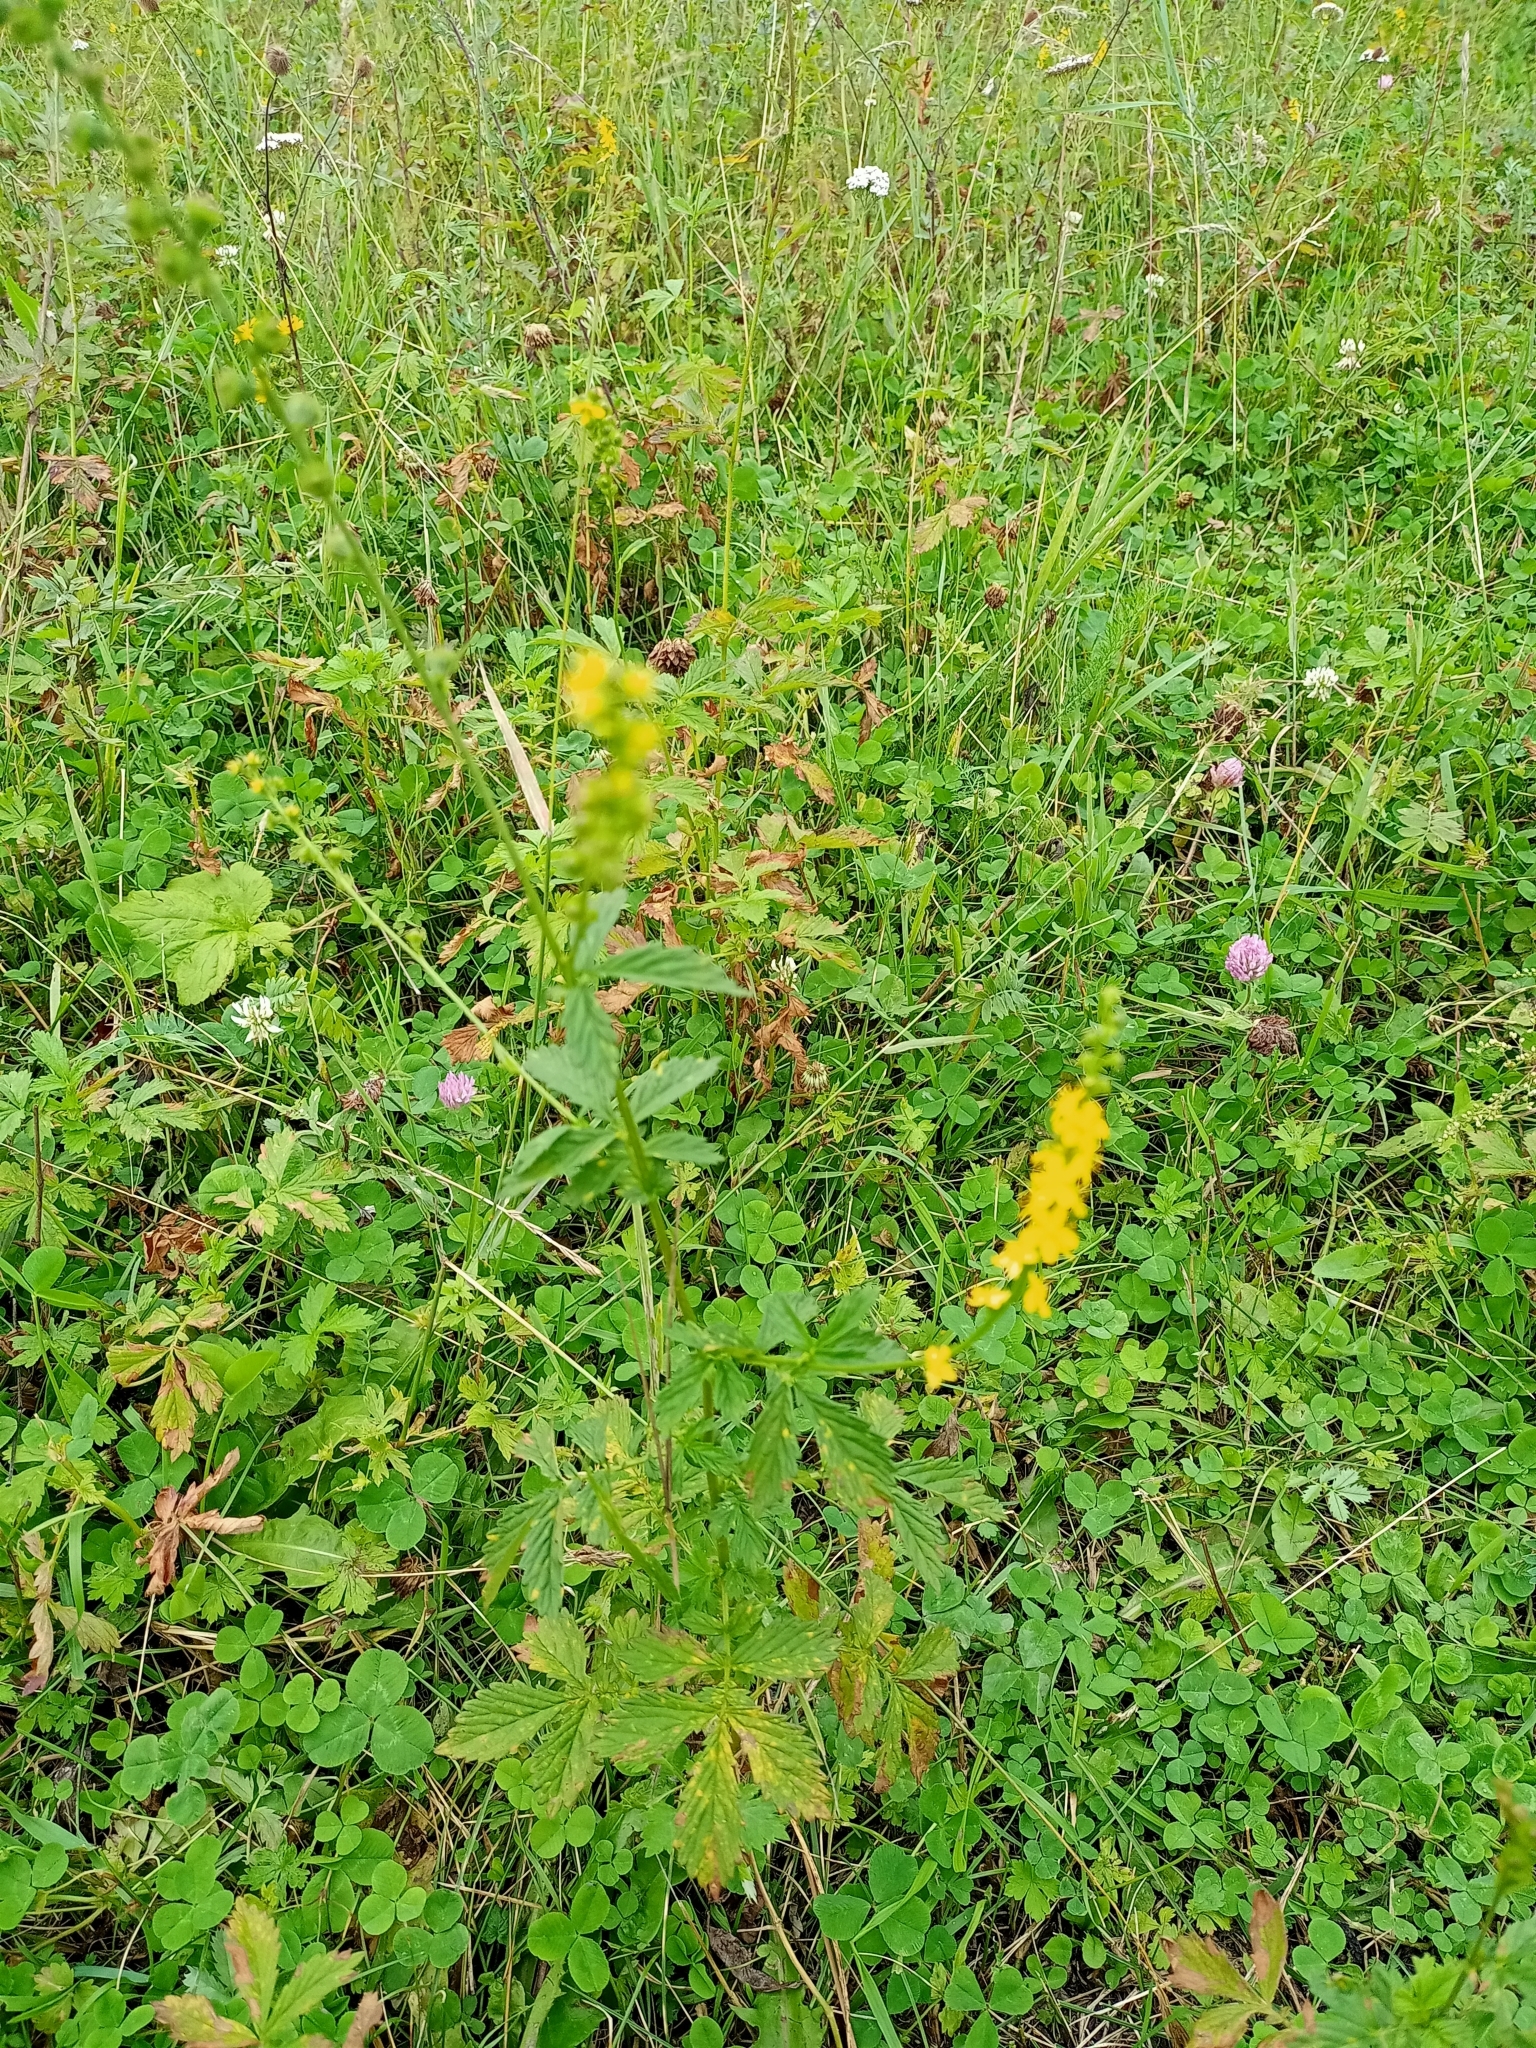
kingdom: Plantae
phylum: Tracheophyta
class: Magnoliopsida
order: Rosales
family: Rosaceae
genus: Agrimonia
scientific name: Agrimonia pilosa
